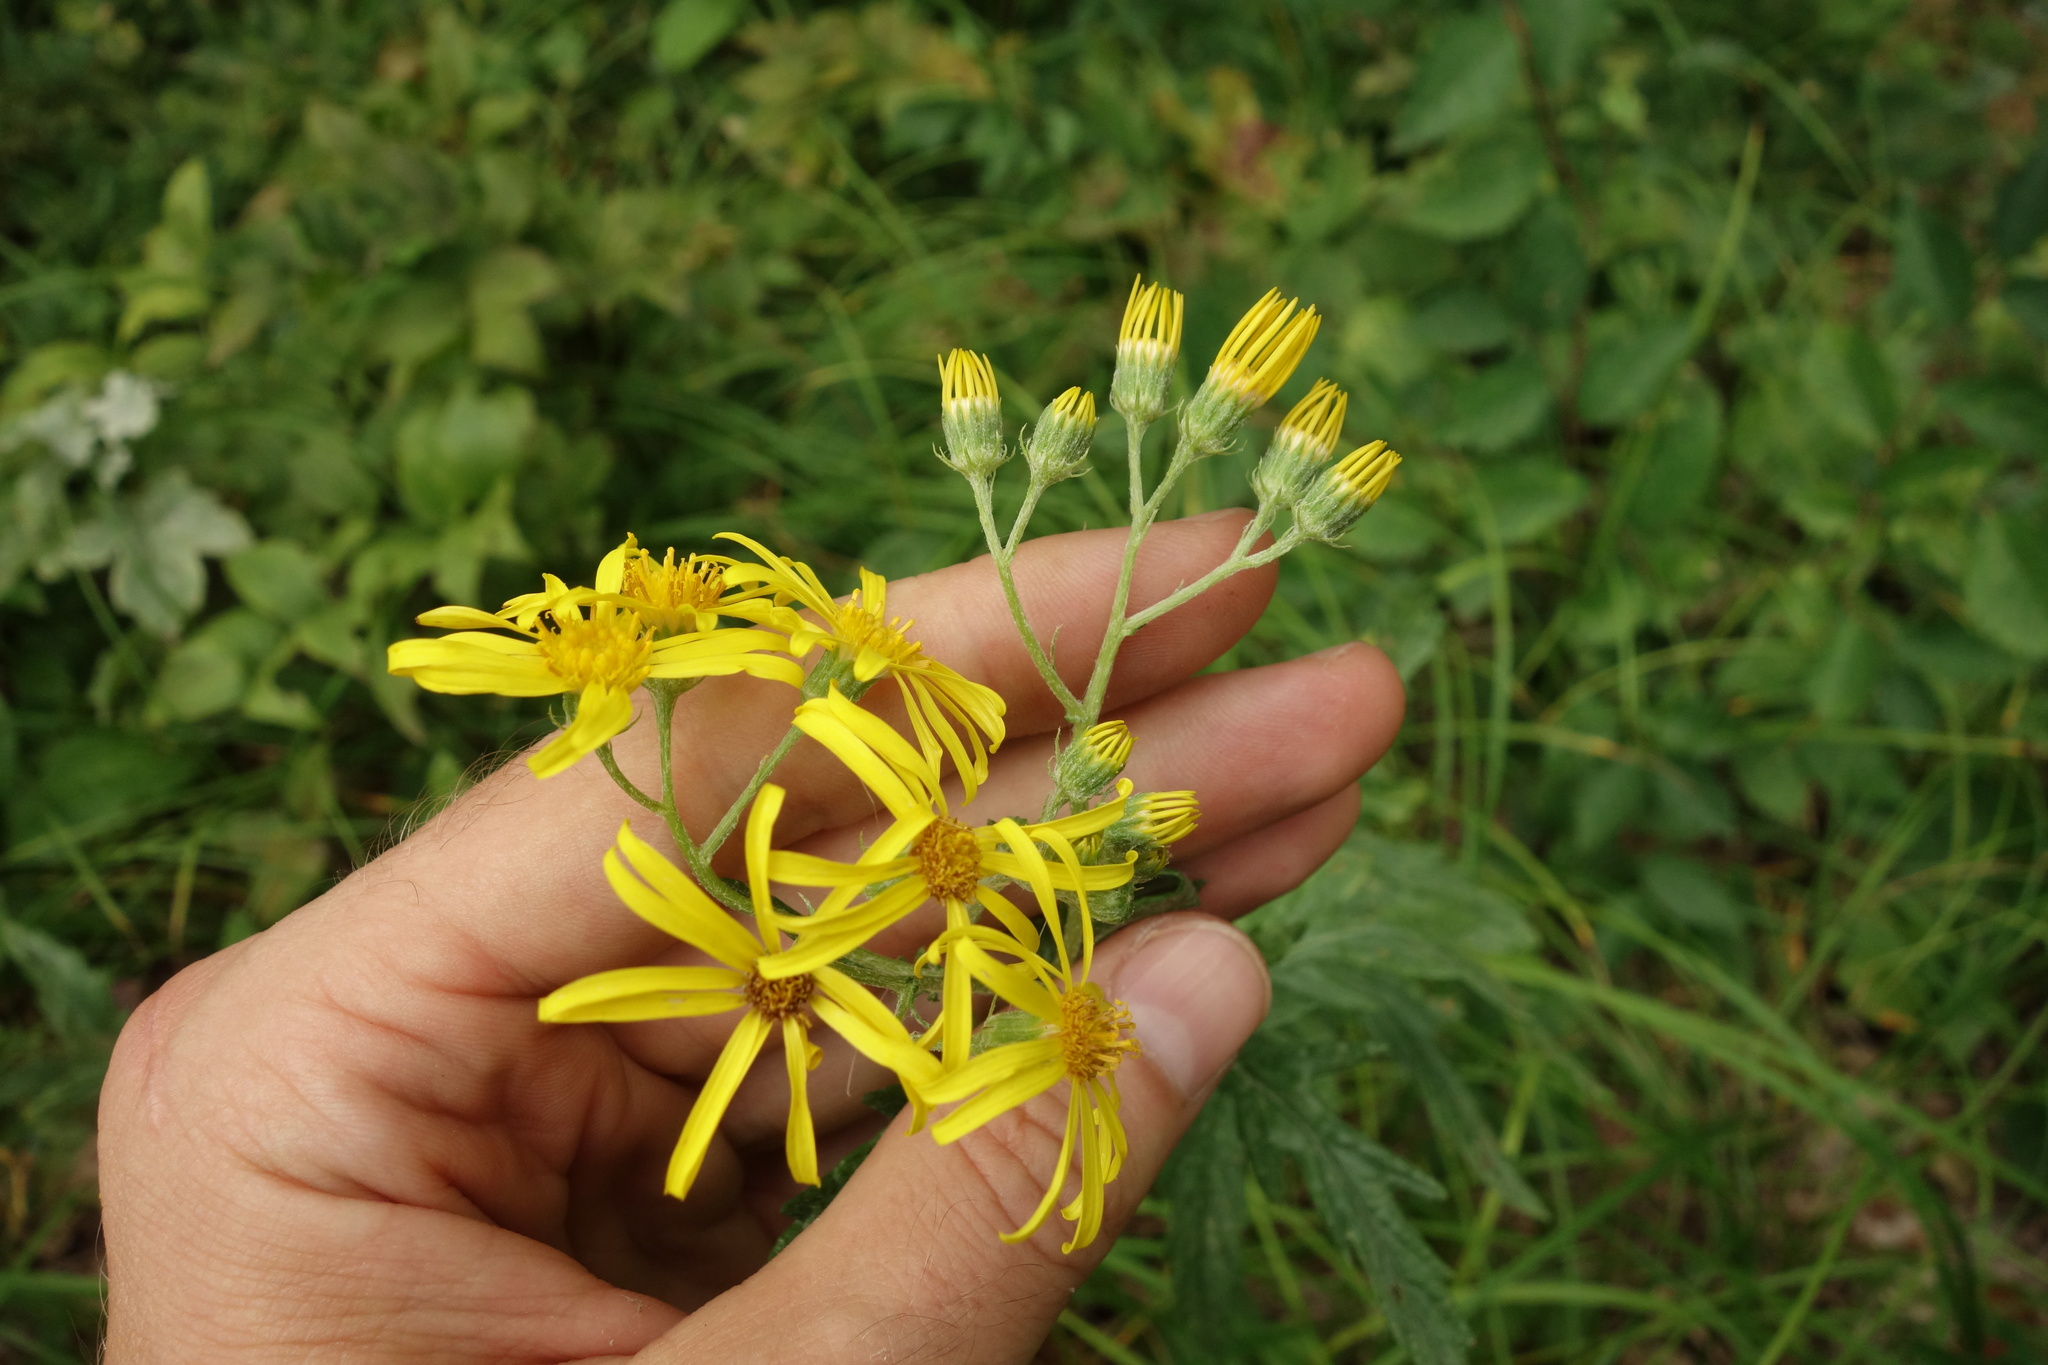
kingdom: Plantae
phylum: Tracheophyta
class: Magnoliopsida
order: Asterales
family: Asteraceae
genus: Jacobaea
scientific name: Jacobaea erucifolia
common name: Hoary ragwort
